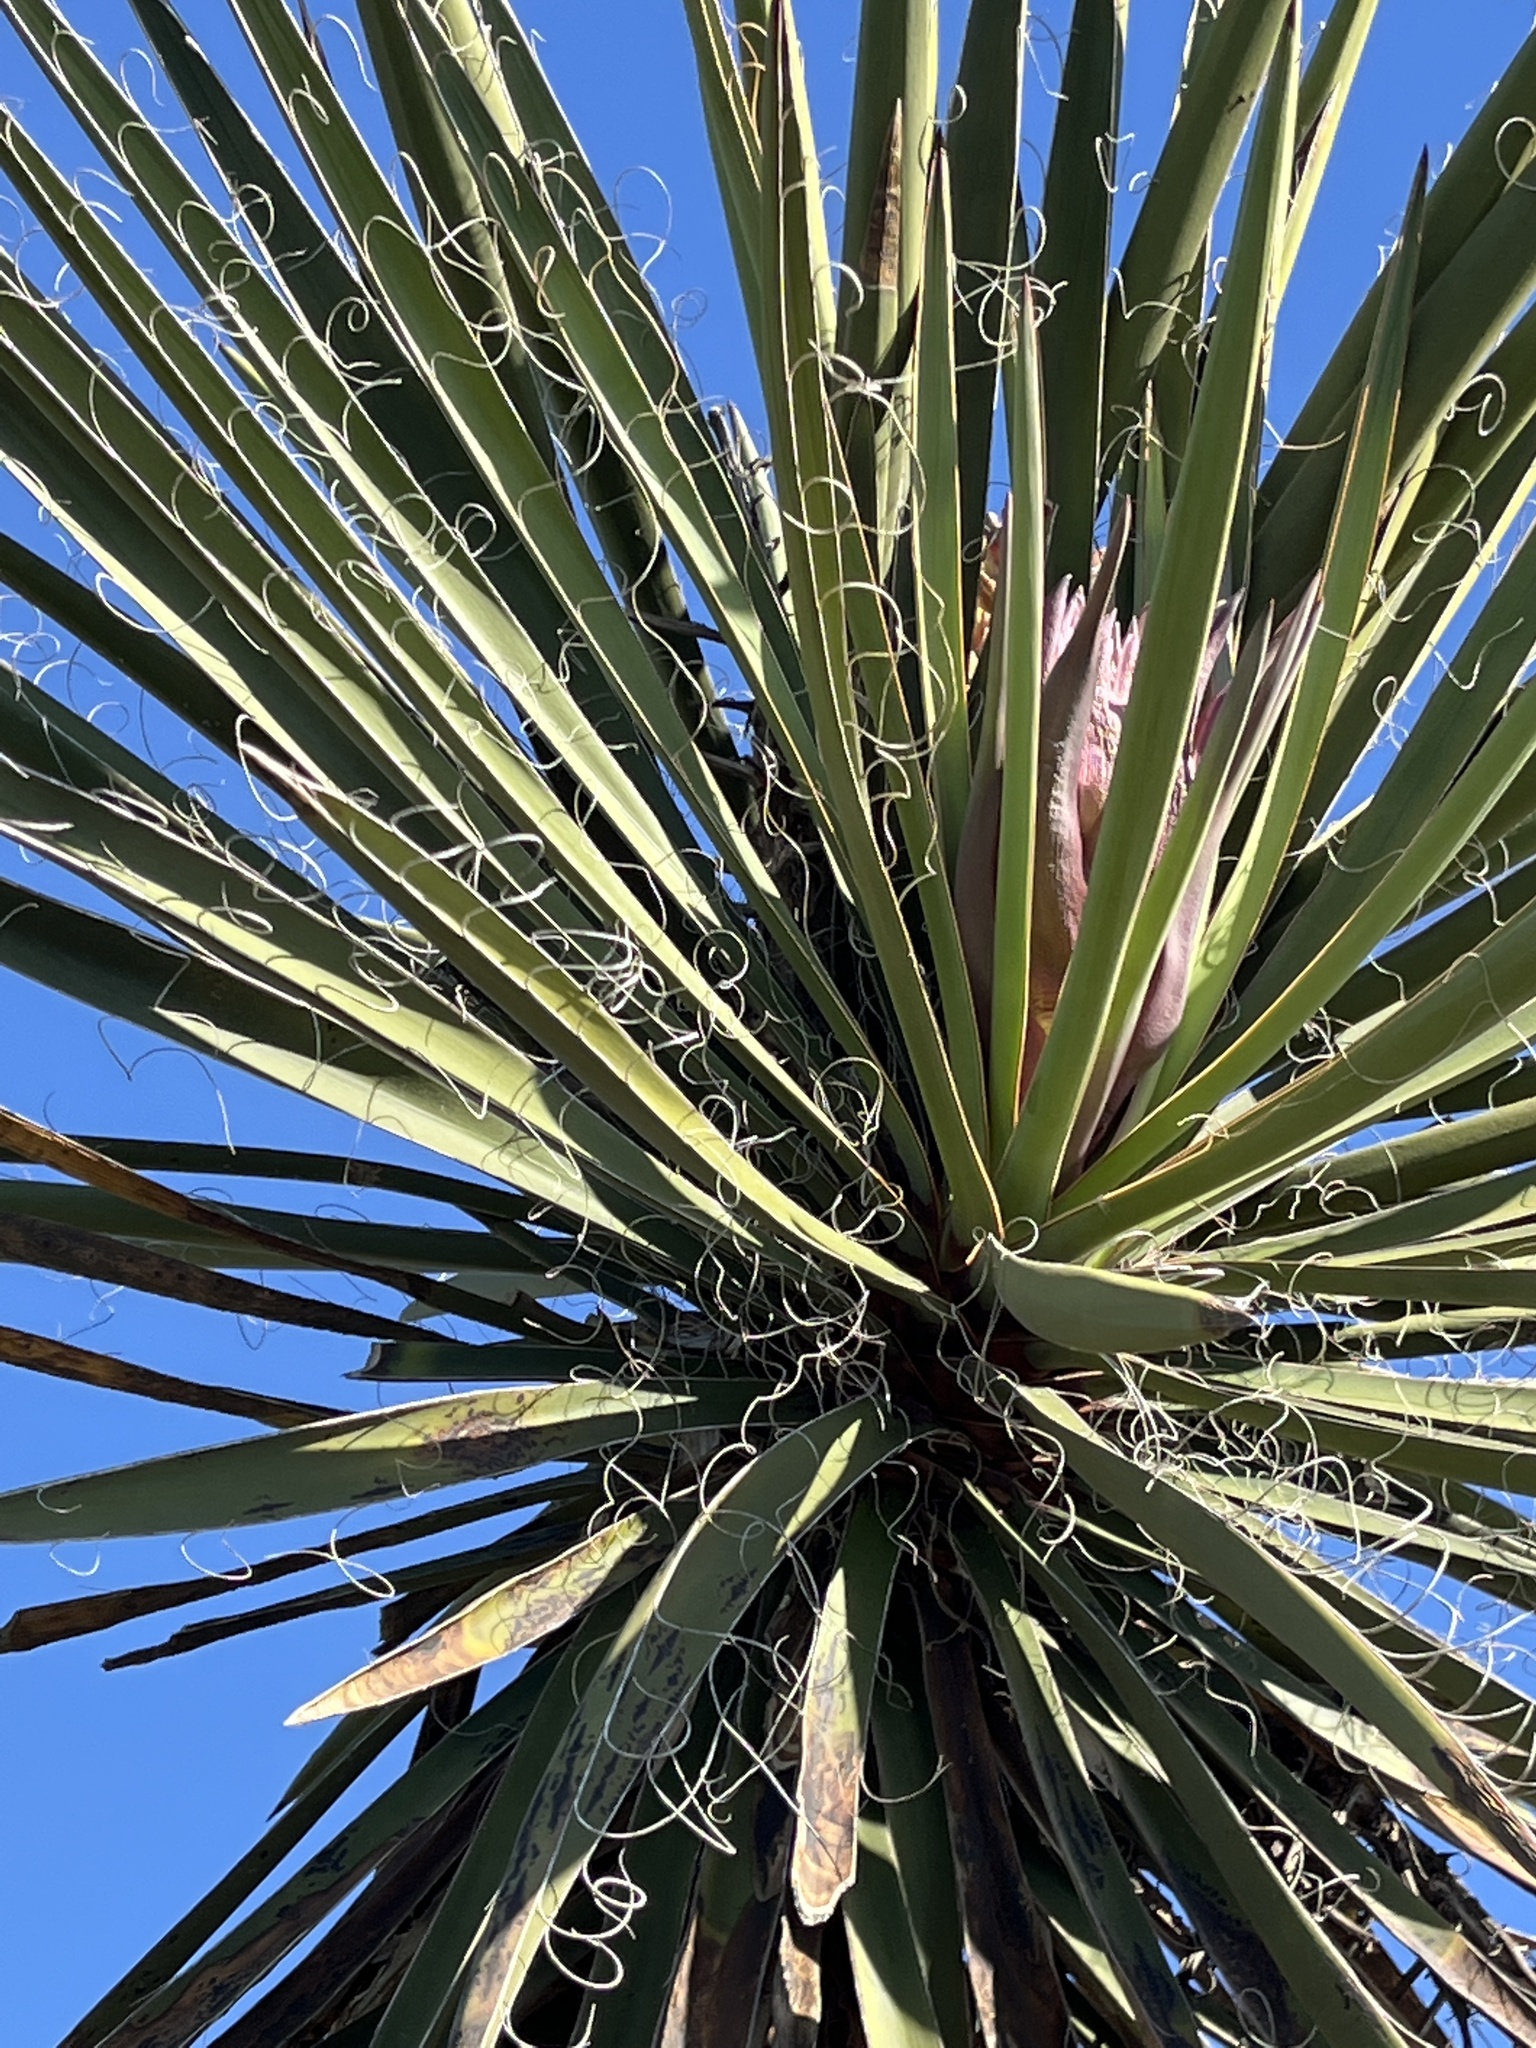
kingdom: Plantae
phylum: Tracheophyta
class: Liliopsida
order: Asparagales
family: Asparagaceae
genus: Yucca
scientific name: Yucca schidigera
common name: Mojave yucca
